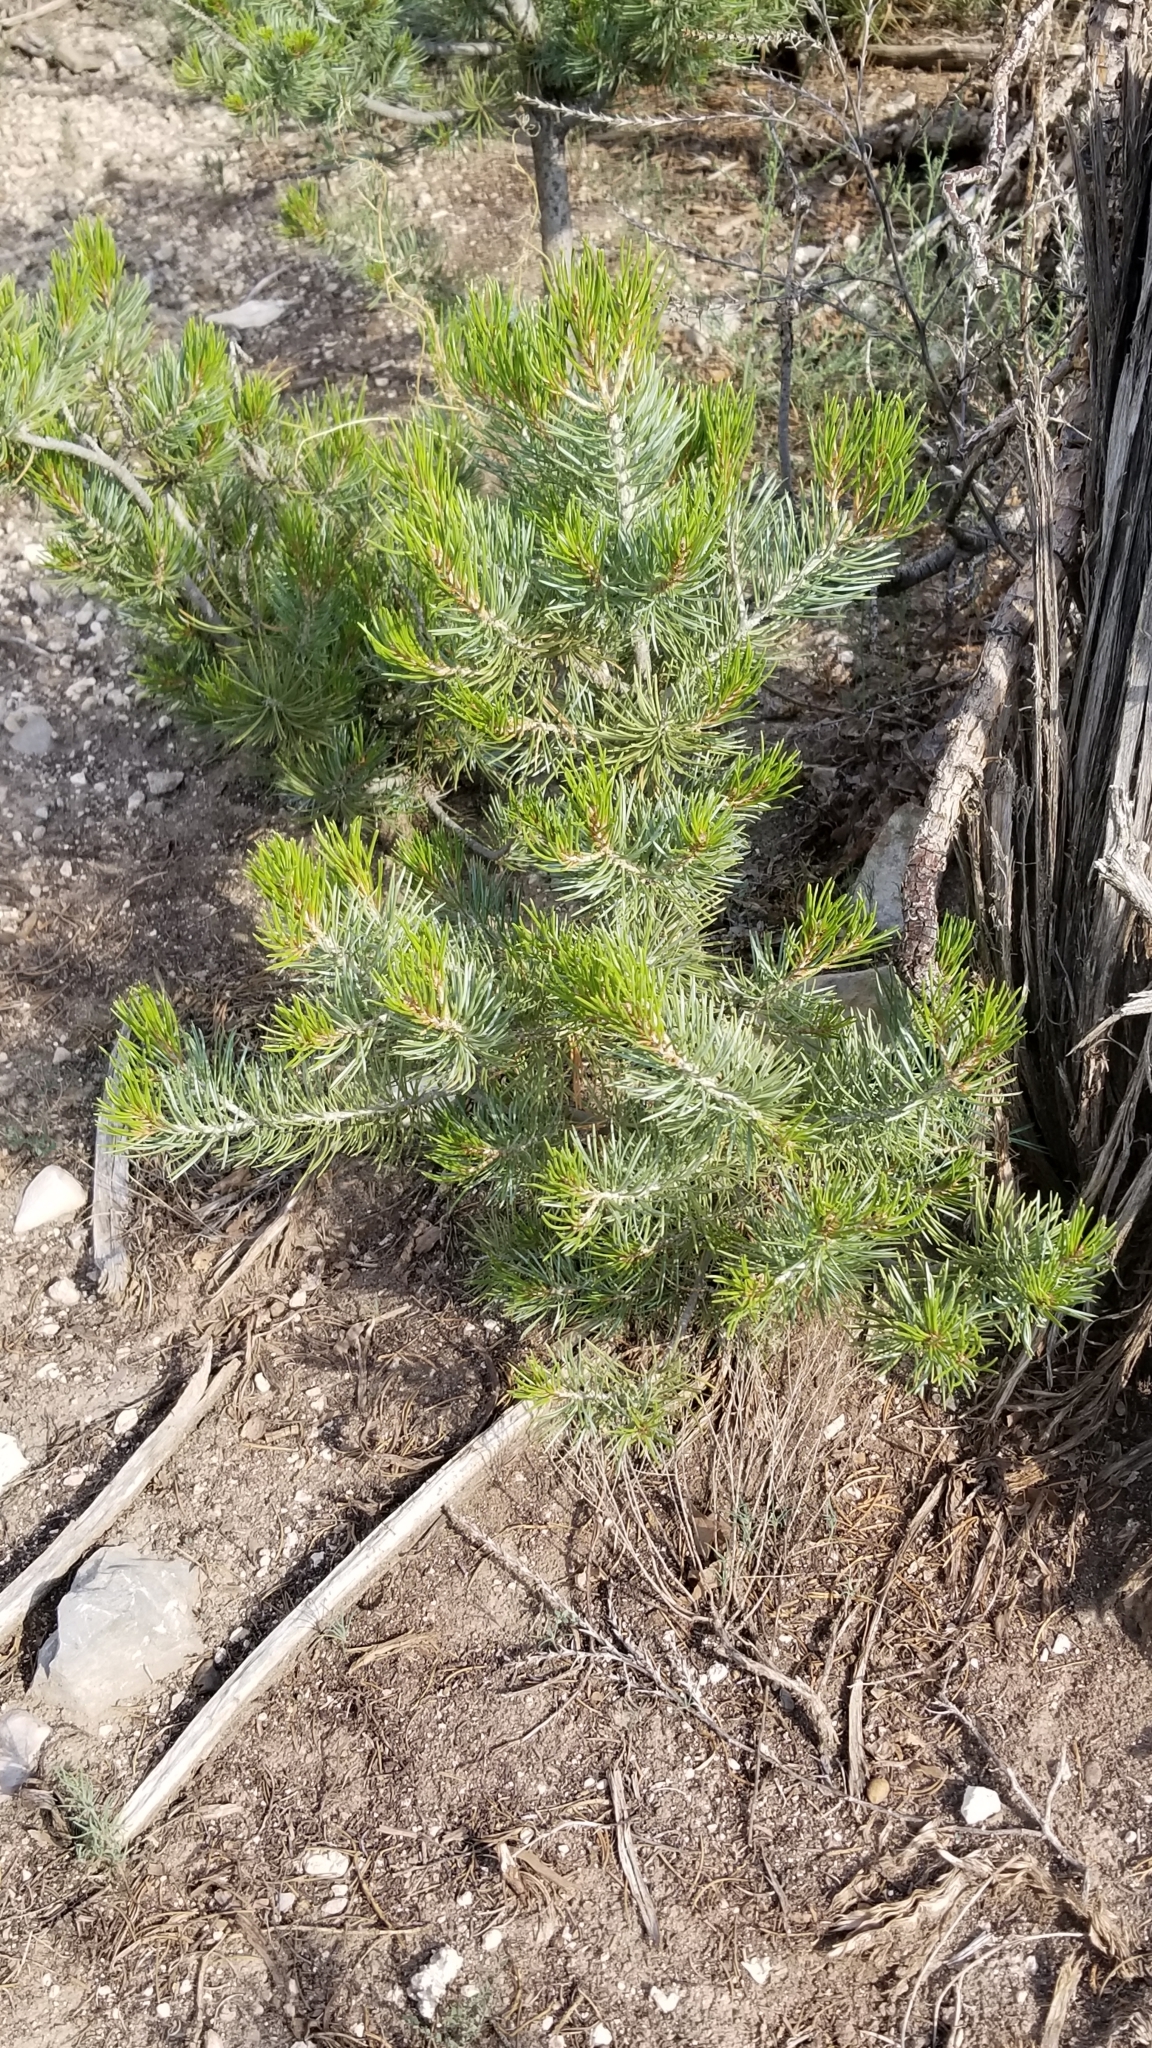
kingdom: Plantae
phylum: Tracheophyta
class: Pinopsida
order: Pinales
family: Pinaceae
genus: Pinus
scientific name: Pinus edulis
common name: Colorado pinyon
